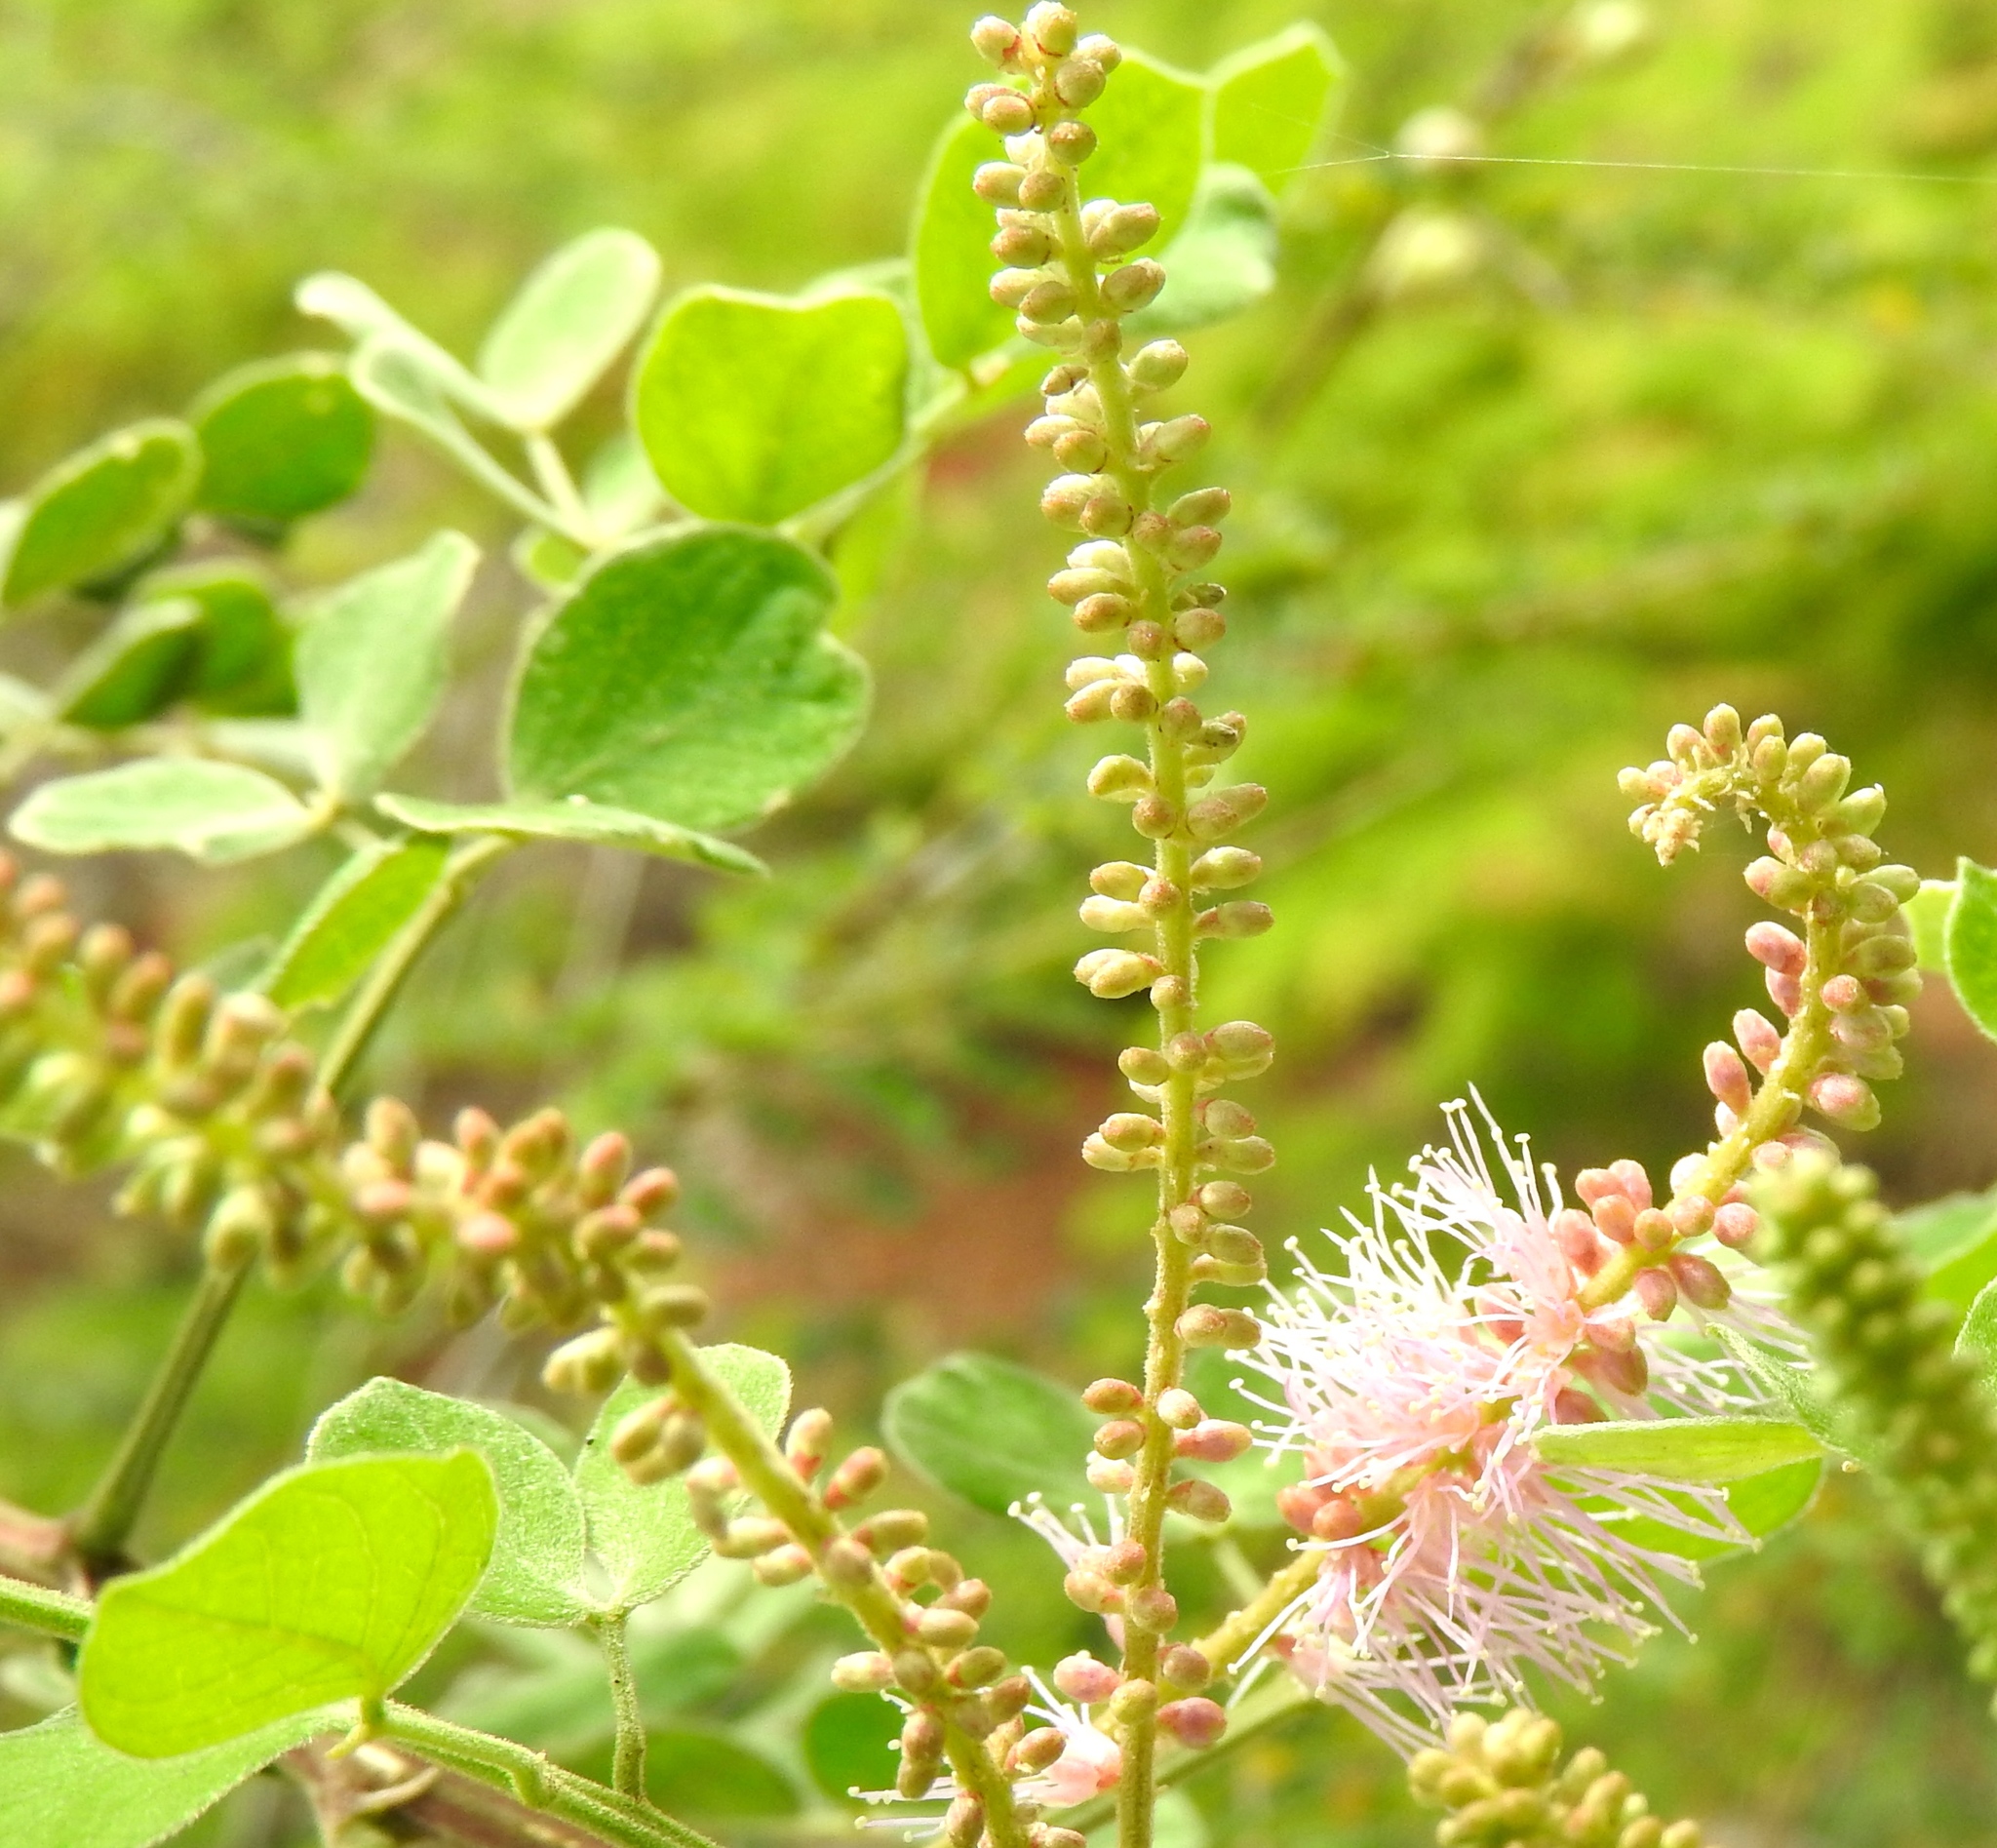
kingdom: Plantae
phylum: Tracheophyta
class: Magnoliopsida
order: Fabales
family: Fabaceae
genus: Mimosa
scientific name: Mimosa spirocarpa
